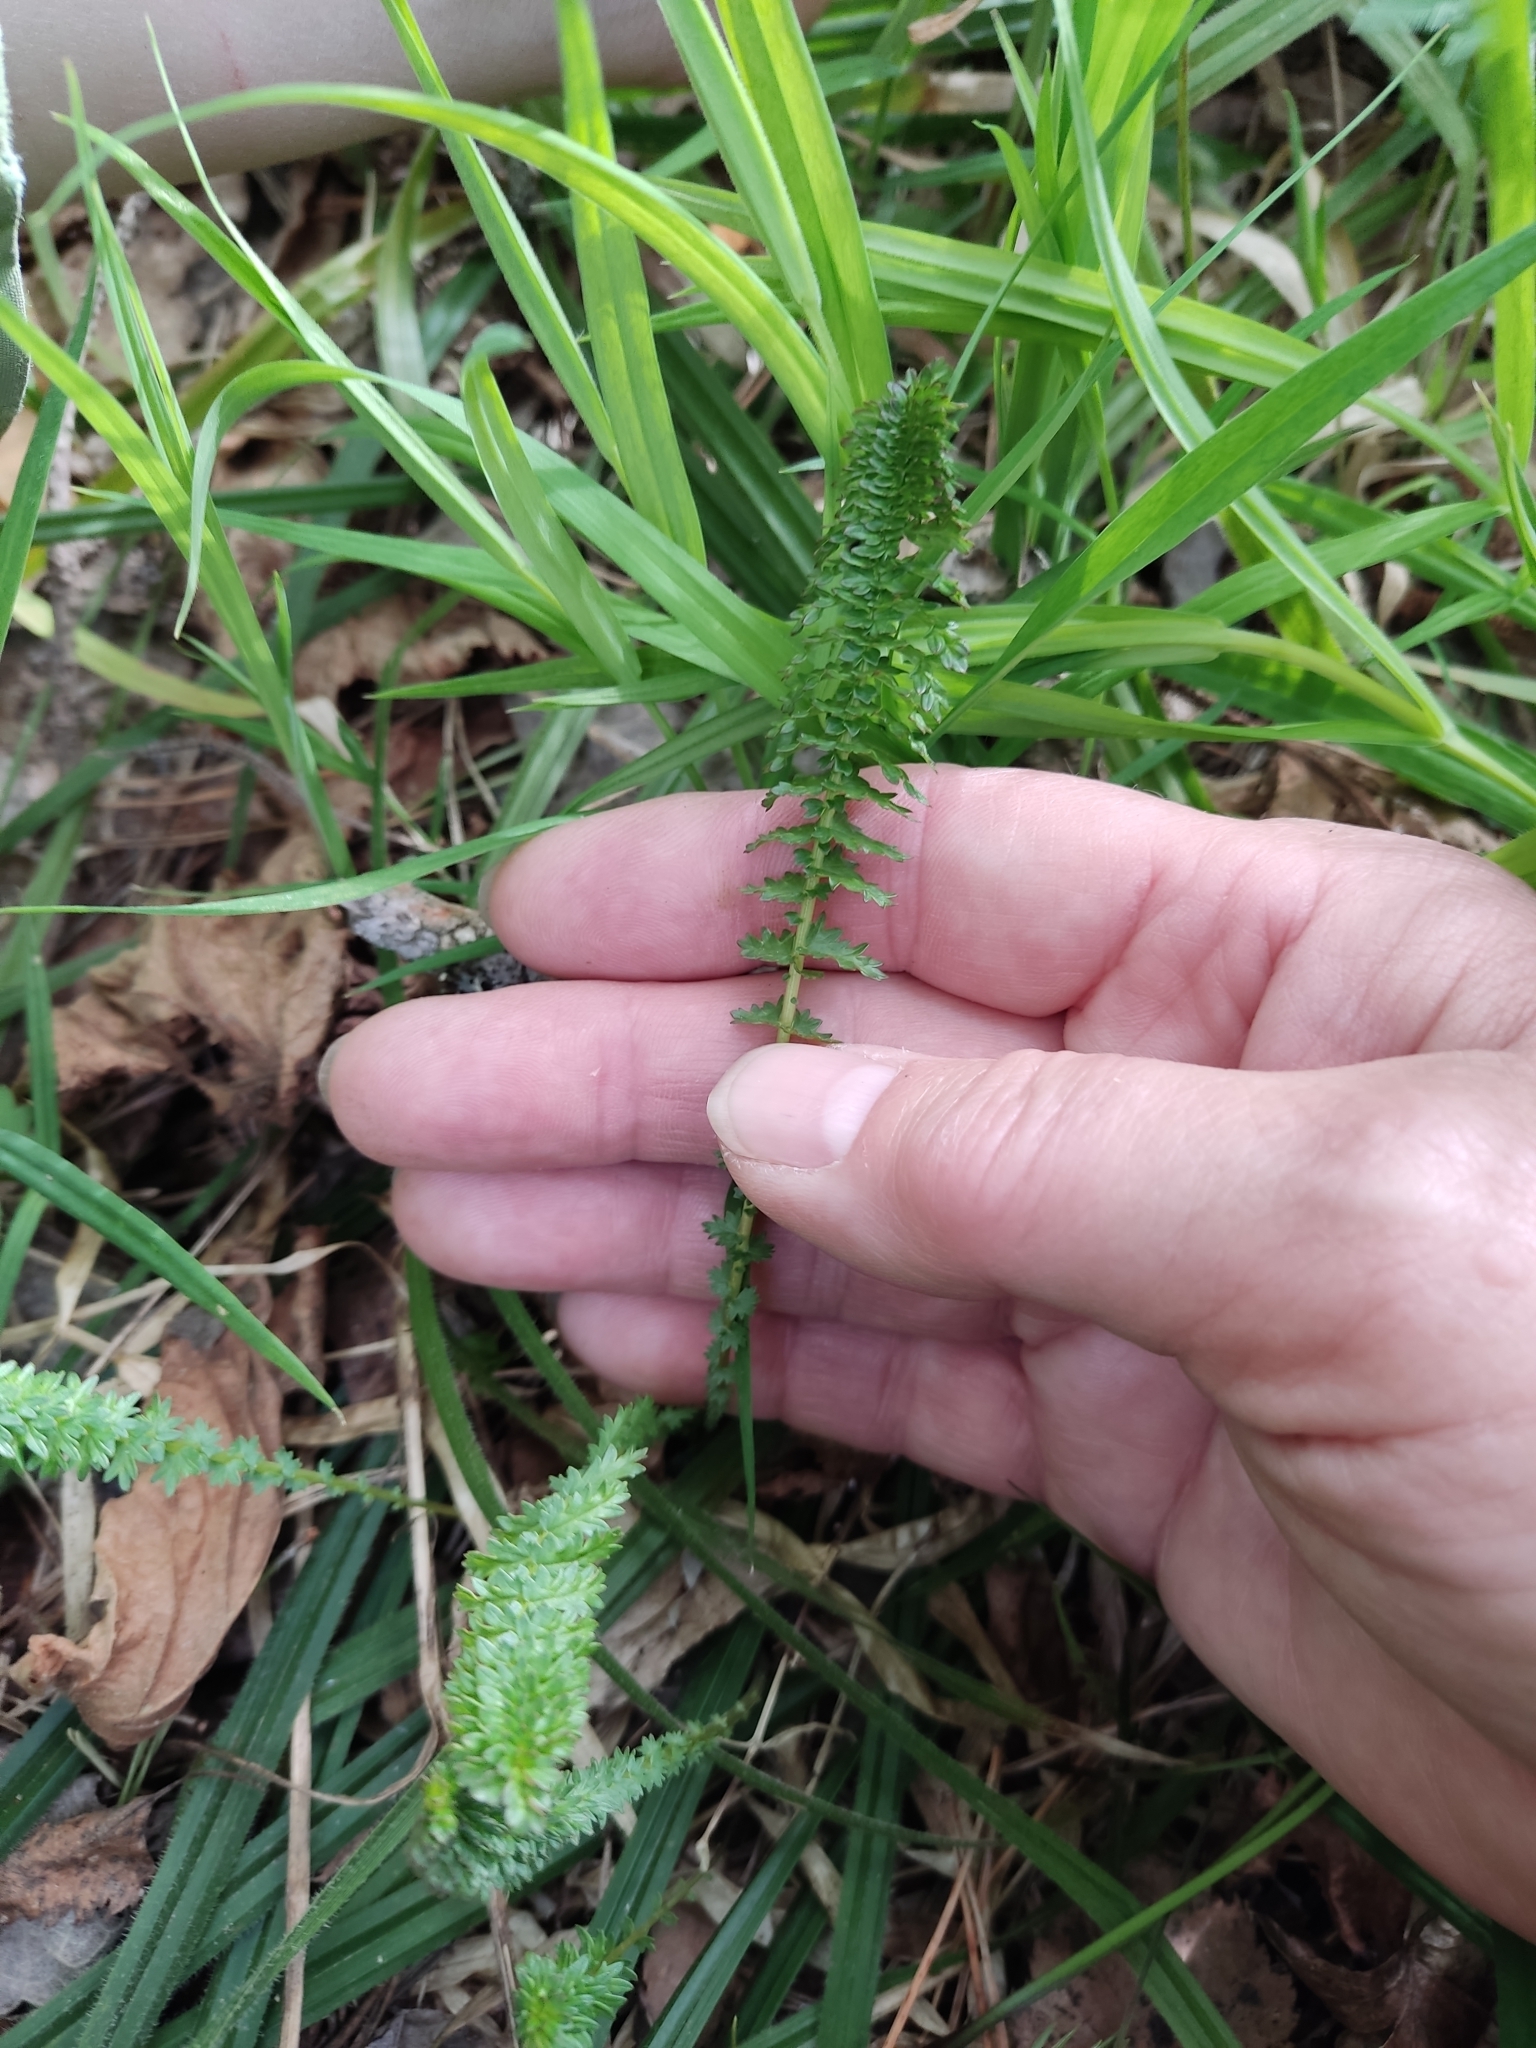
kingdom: Plantae
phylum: Tracheophyta
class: Magnoliopsida
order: Rosales
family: Rosaceae
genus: Filipendula
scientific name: Filipendula vulgaris
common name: Dropwort
